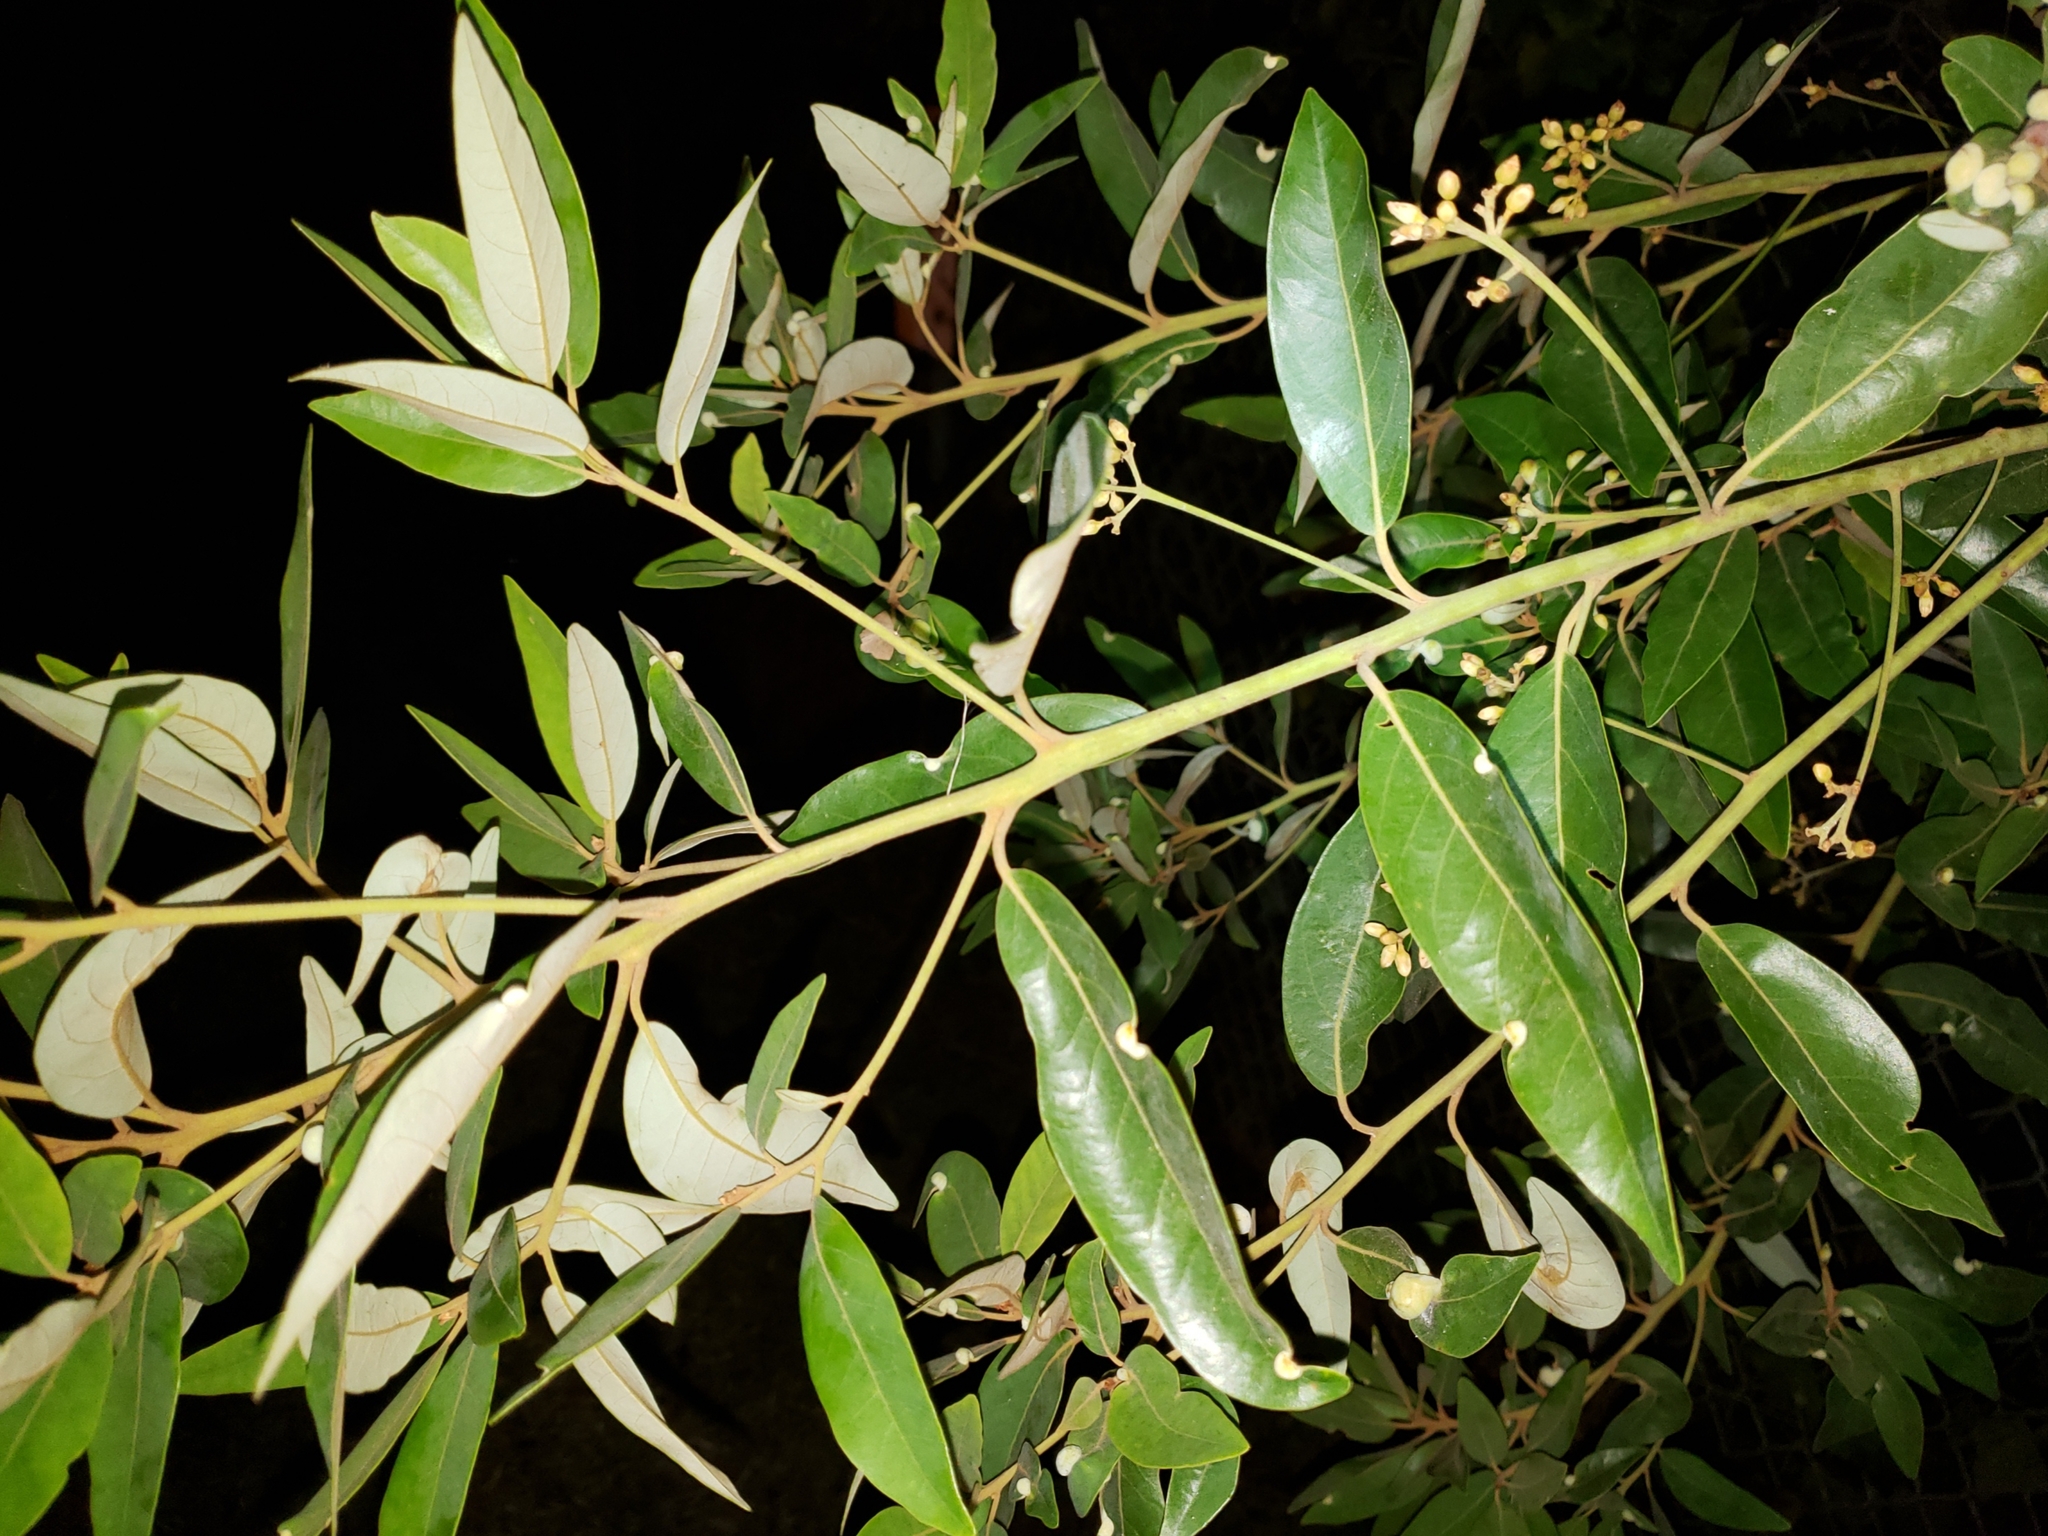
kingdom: Plantae
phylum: Tracheophyta
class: Magnoliopsida
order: Laurales
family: Lauraceae
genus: Persea
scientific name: Persea palustris
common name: Swampbay
